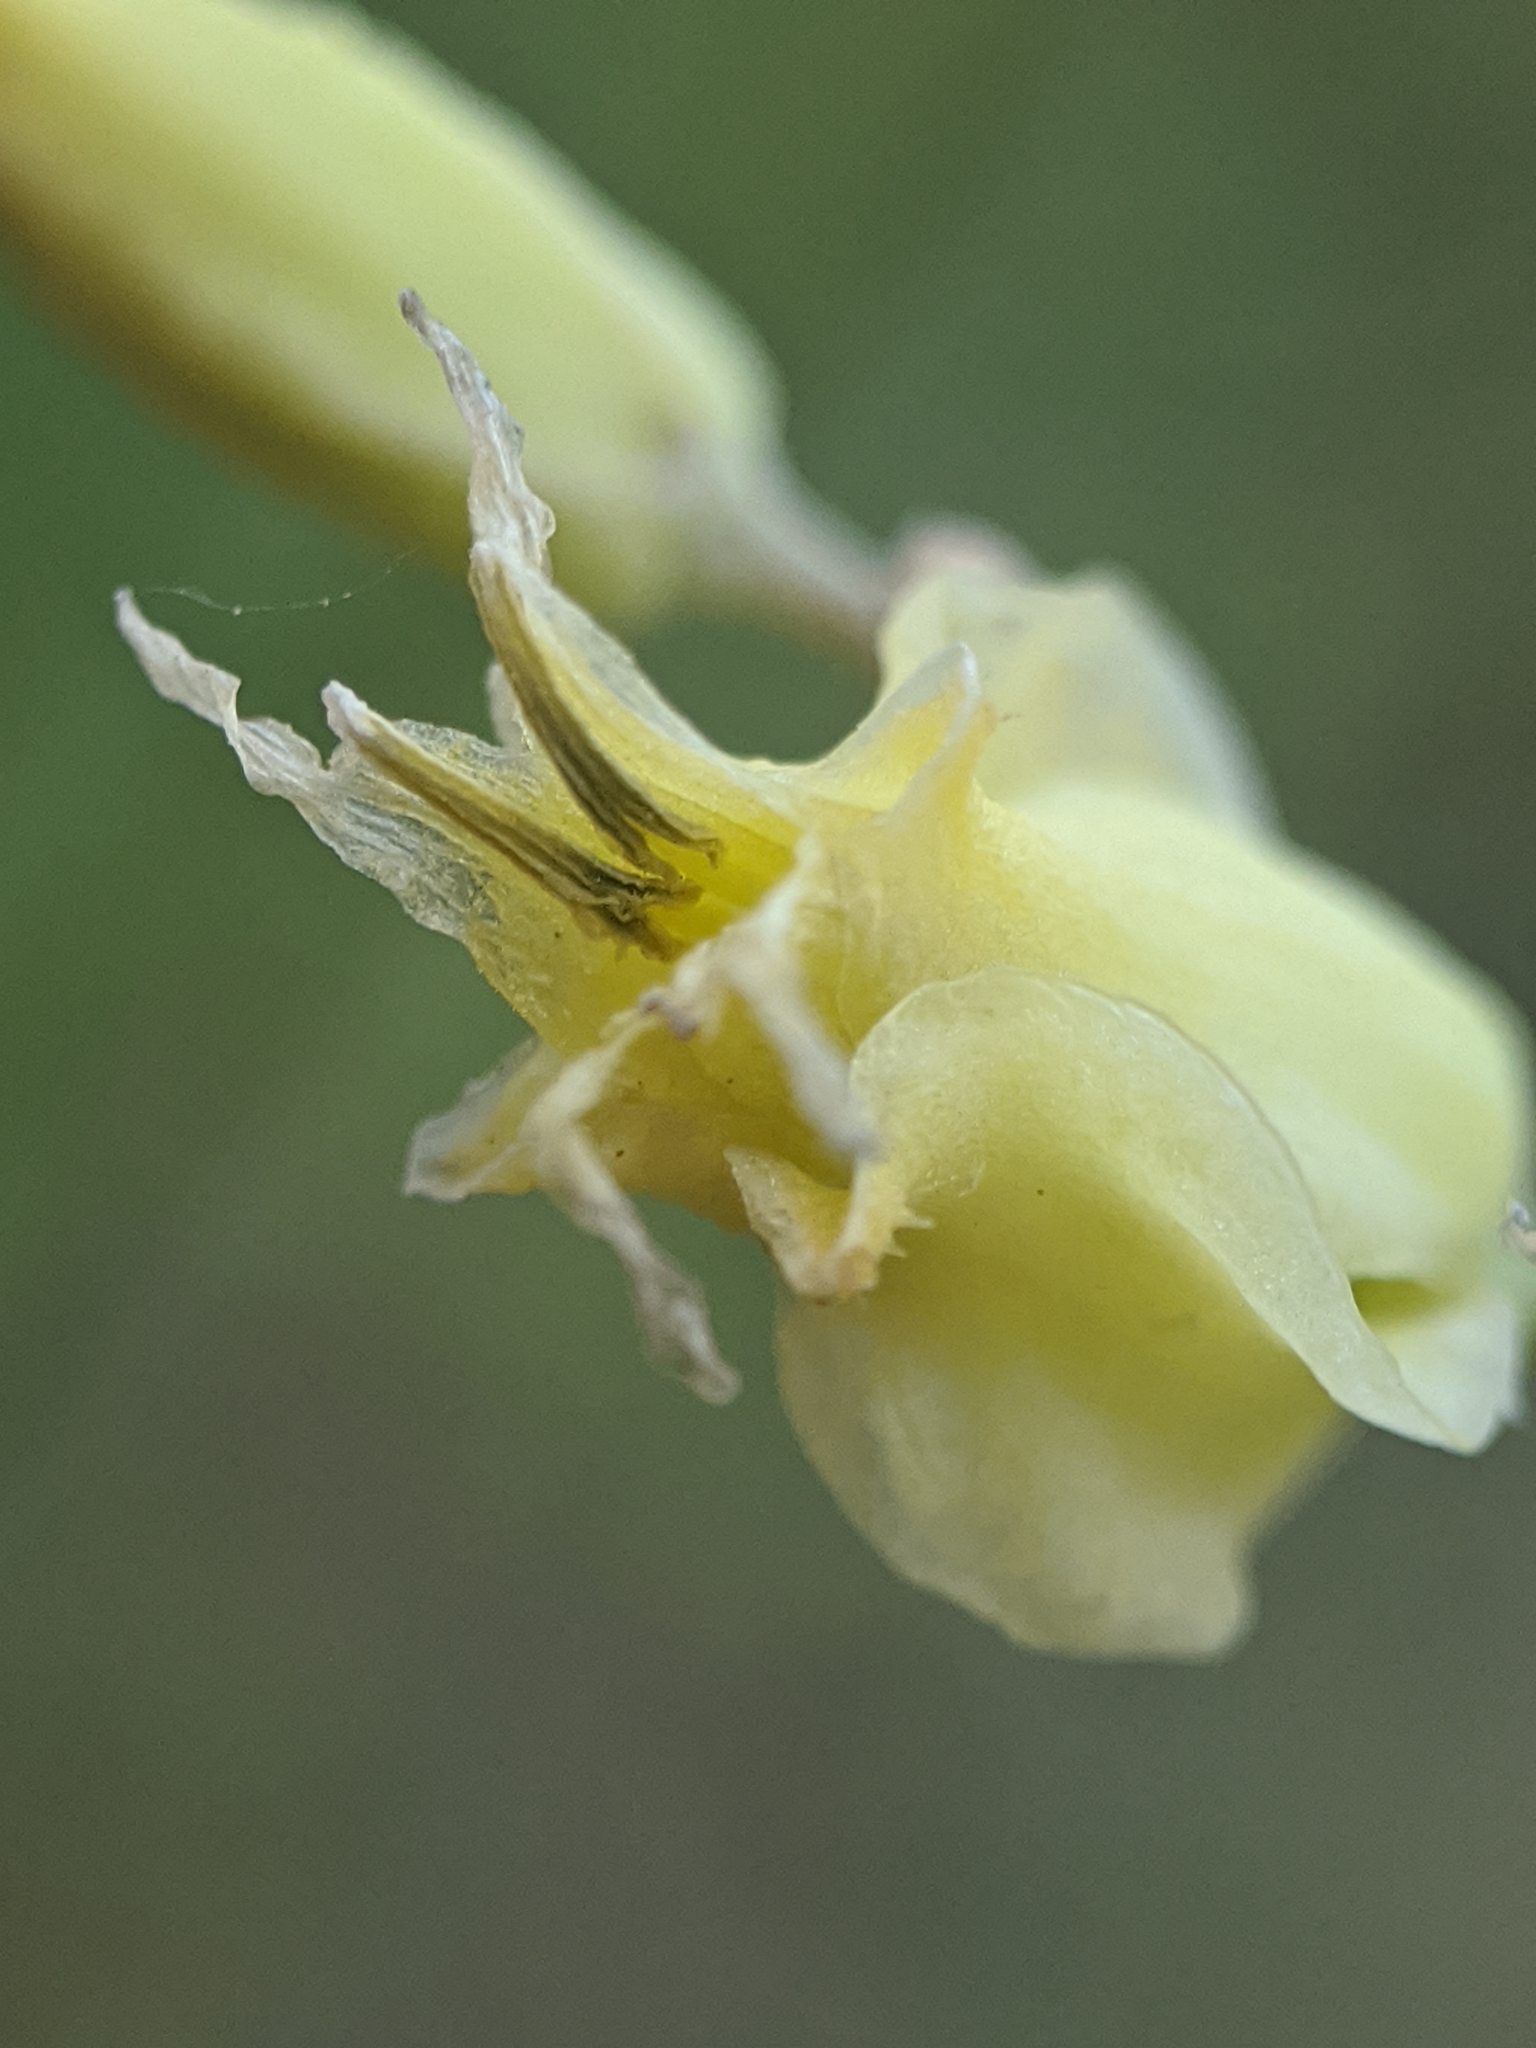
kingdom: Plantae
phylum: Tracheophyta
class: Magnoliopsida
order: Brassicales
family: Brassicaceae
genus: Streptanthus
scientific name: Streptanthus bernardinus
